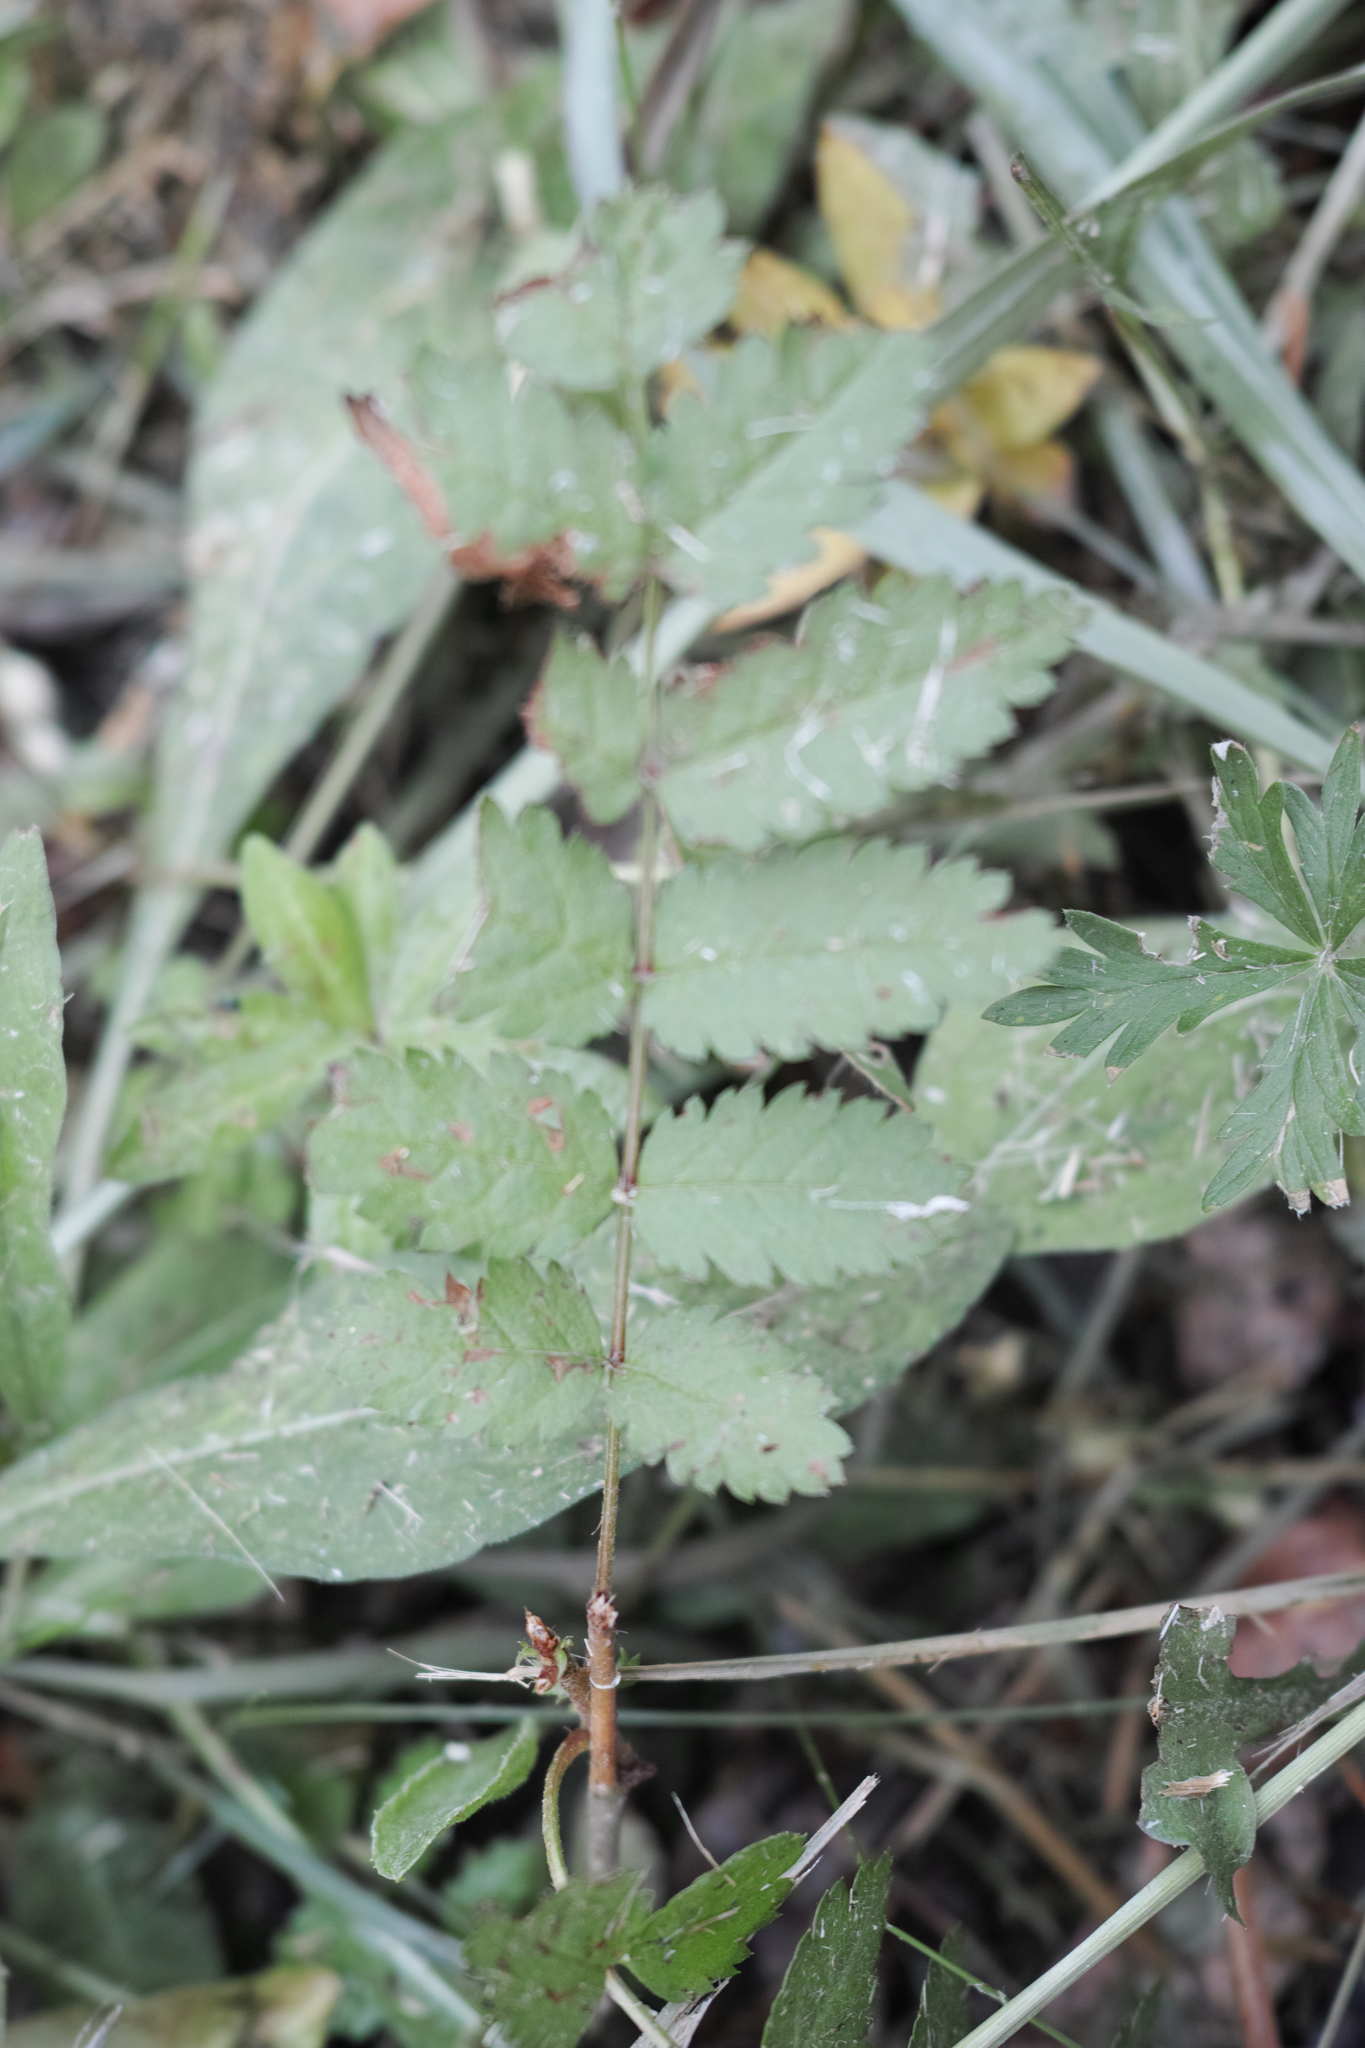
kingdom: Plantae
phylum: Tracheophyta
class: Magnoliopsida
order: Rosales
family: Rosaceae
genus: Sorbus
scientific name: Sorbus aucuparia
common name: Rowan
